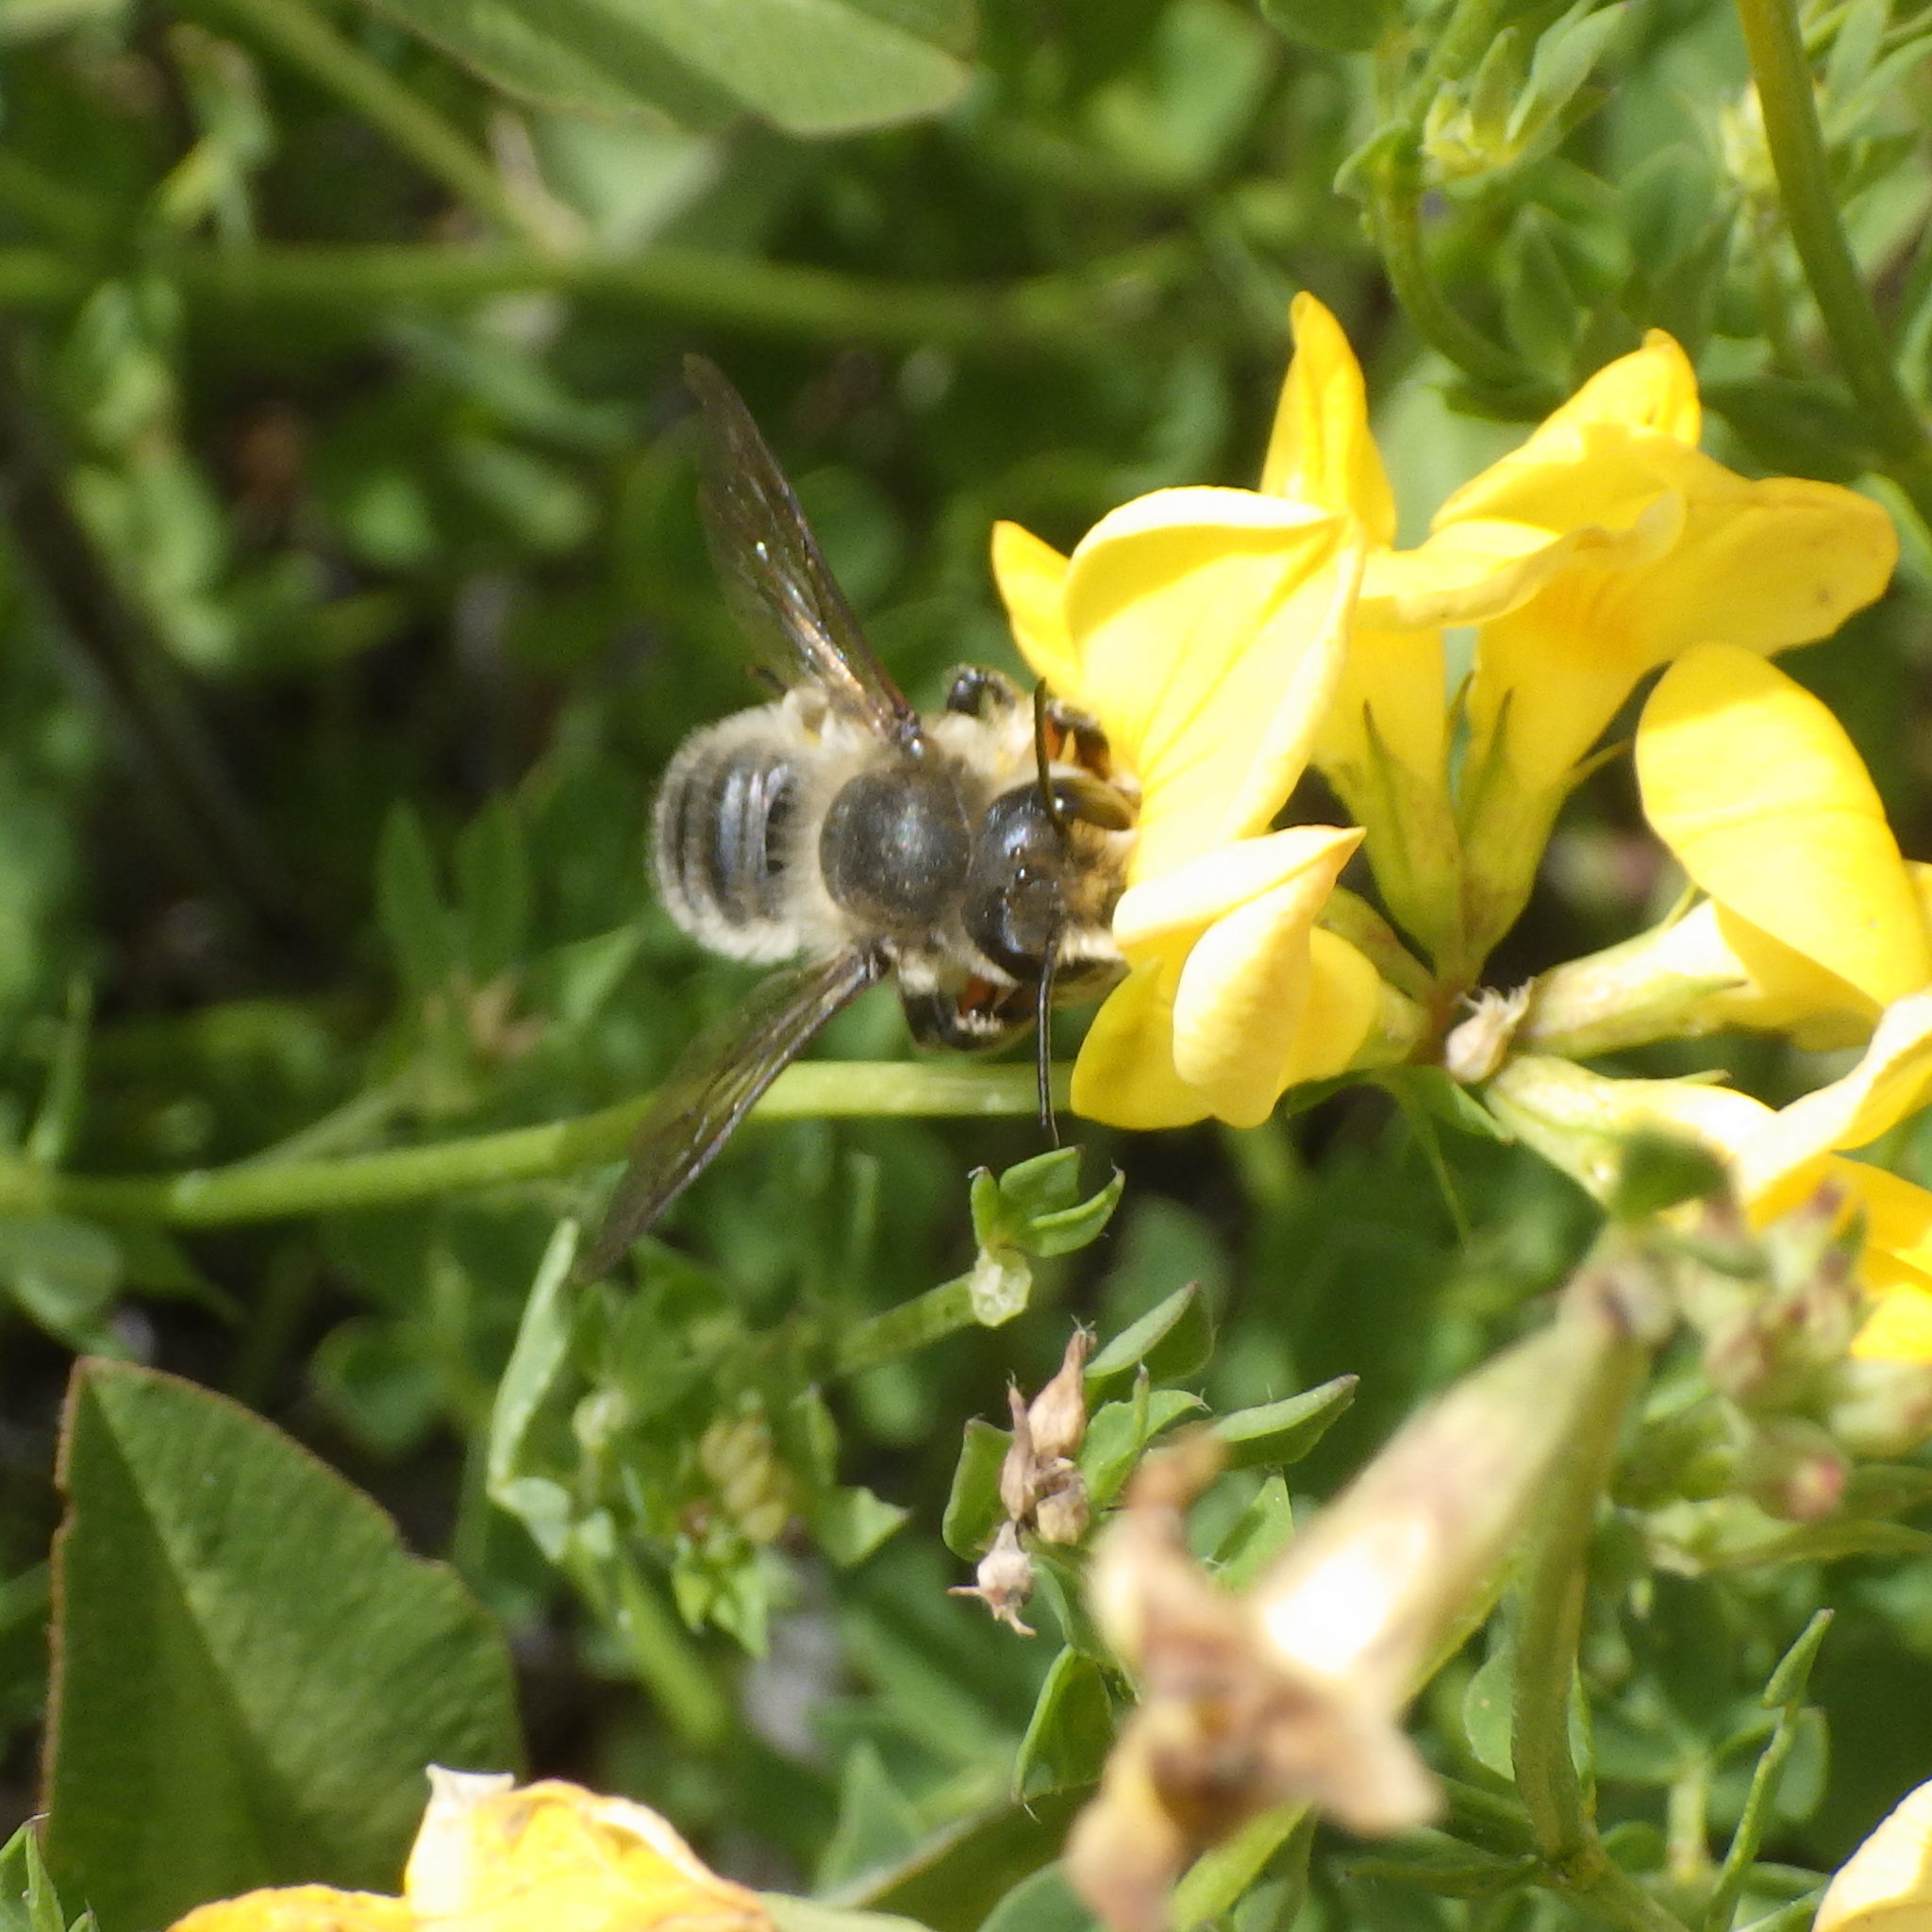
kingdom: Animalia
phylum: Arthropoda
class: Insecta
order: Hymenoptera
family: Megachilidae
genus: Megachile
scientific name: Megachile frigida
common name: Frigid leafcutter
